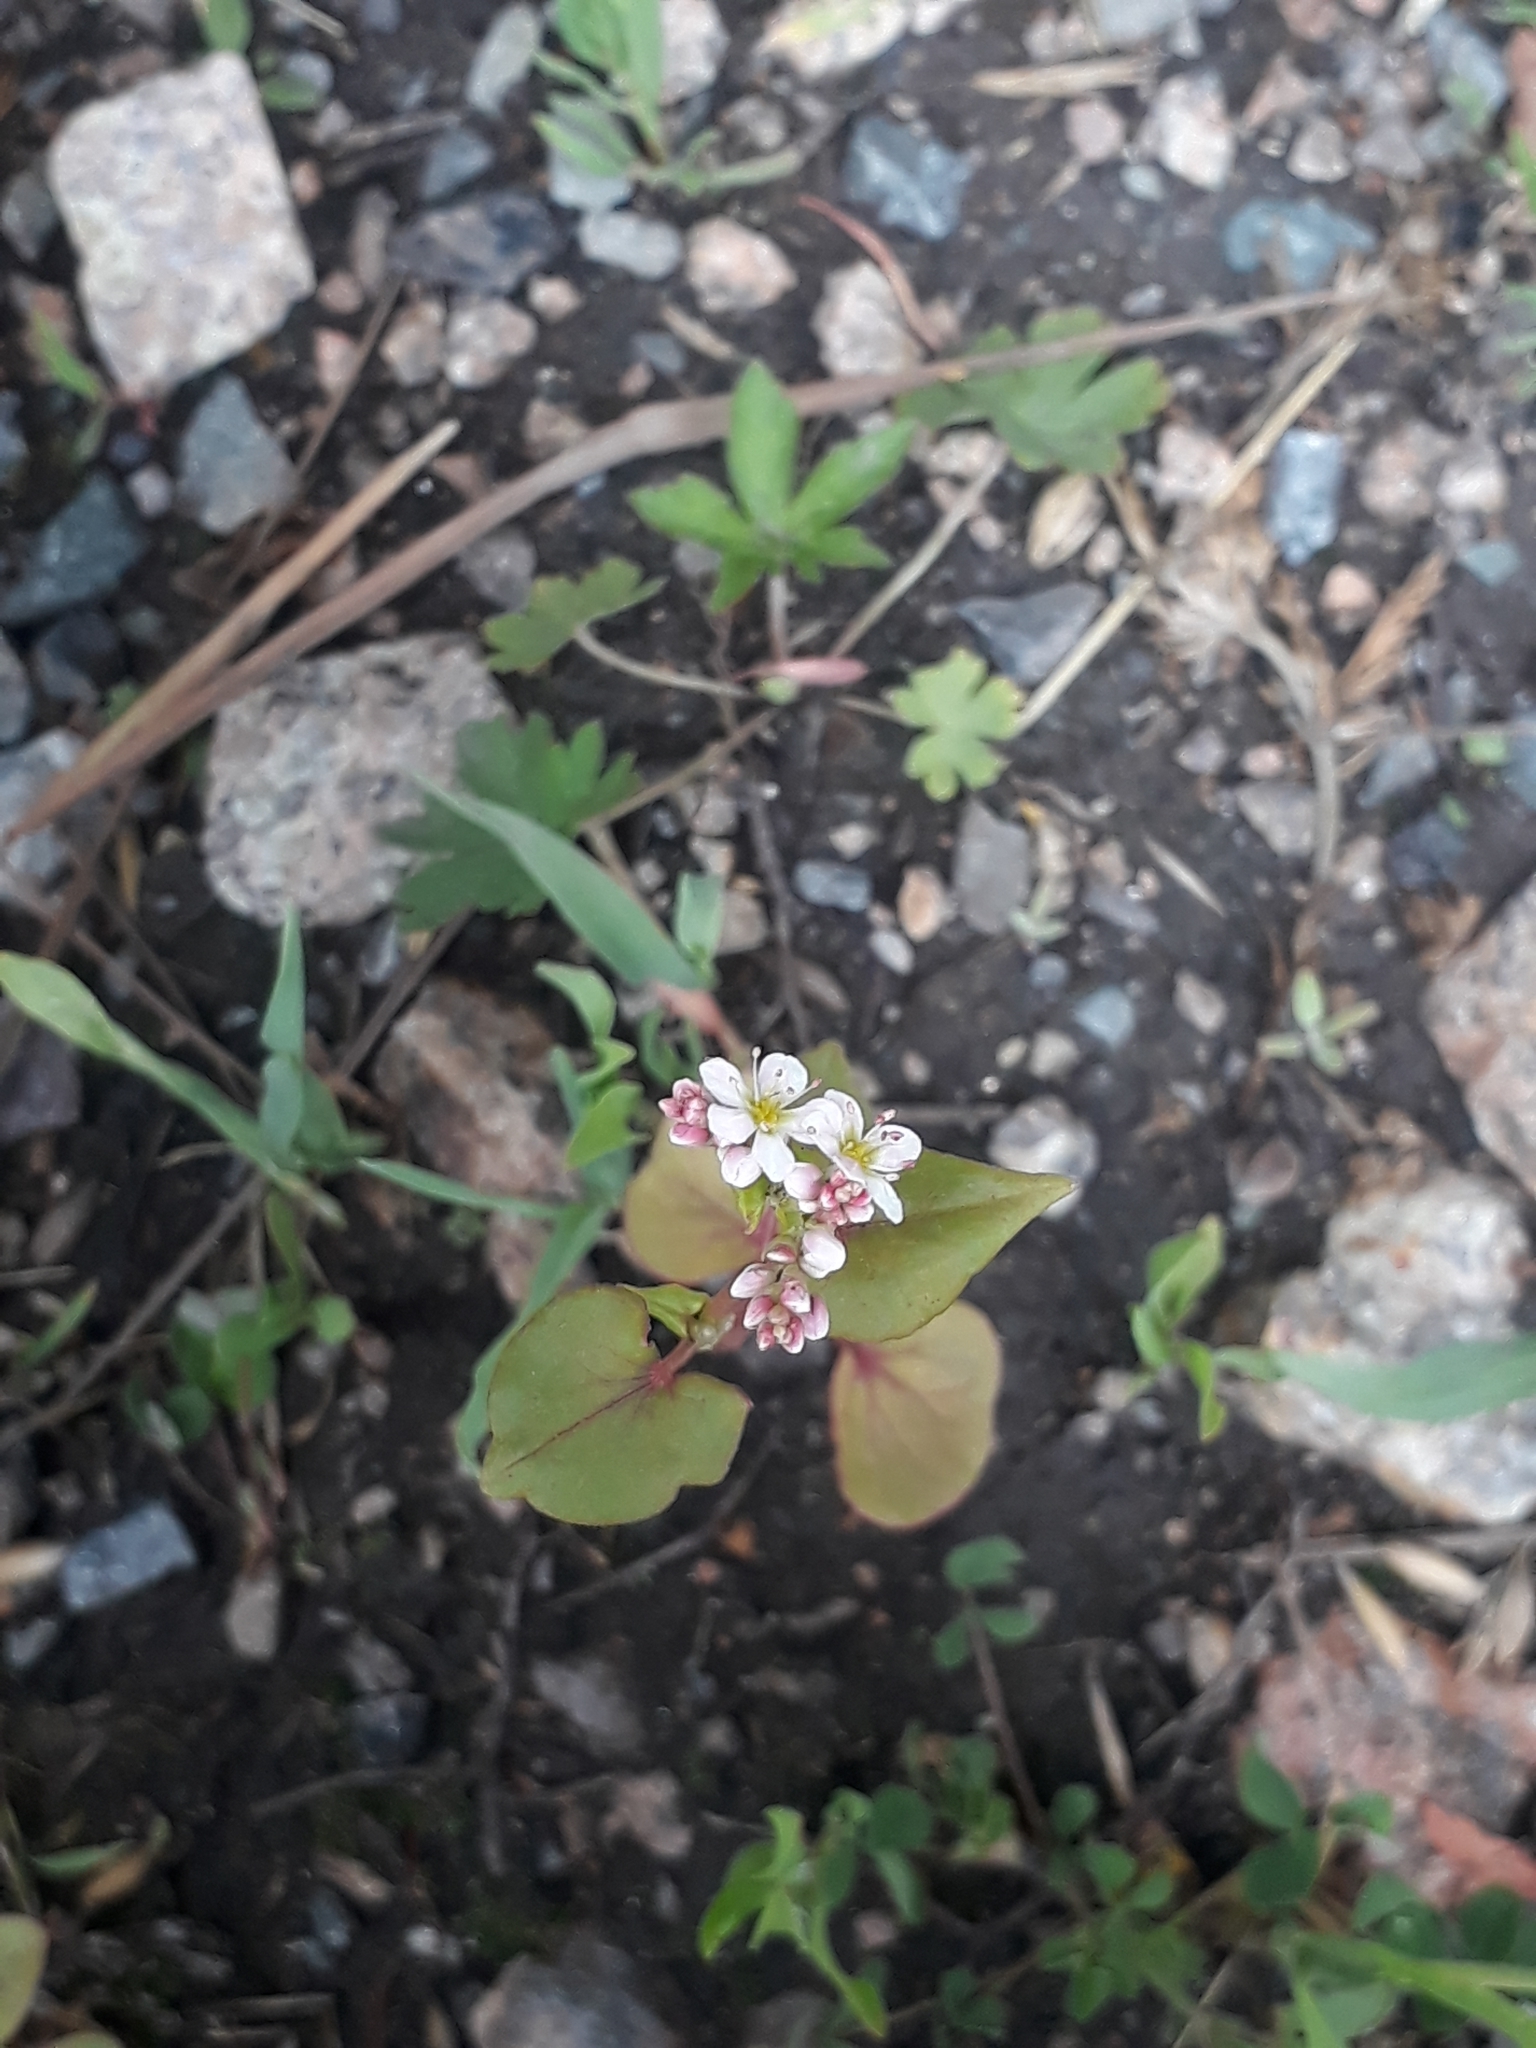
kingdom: Plantae
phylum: Tracheophyta
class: Magnoliopsida
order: Caryophyllales
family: Polygonaceae
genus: Fagopyrum
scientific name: Fagopyrum esculentum
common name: Buckwheat
